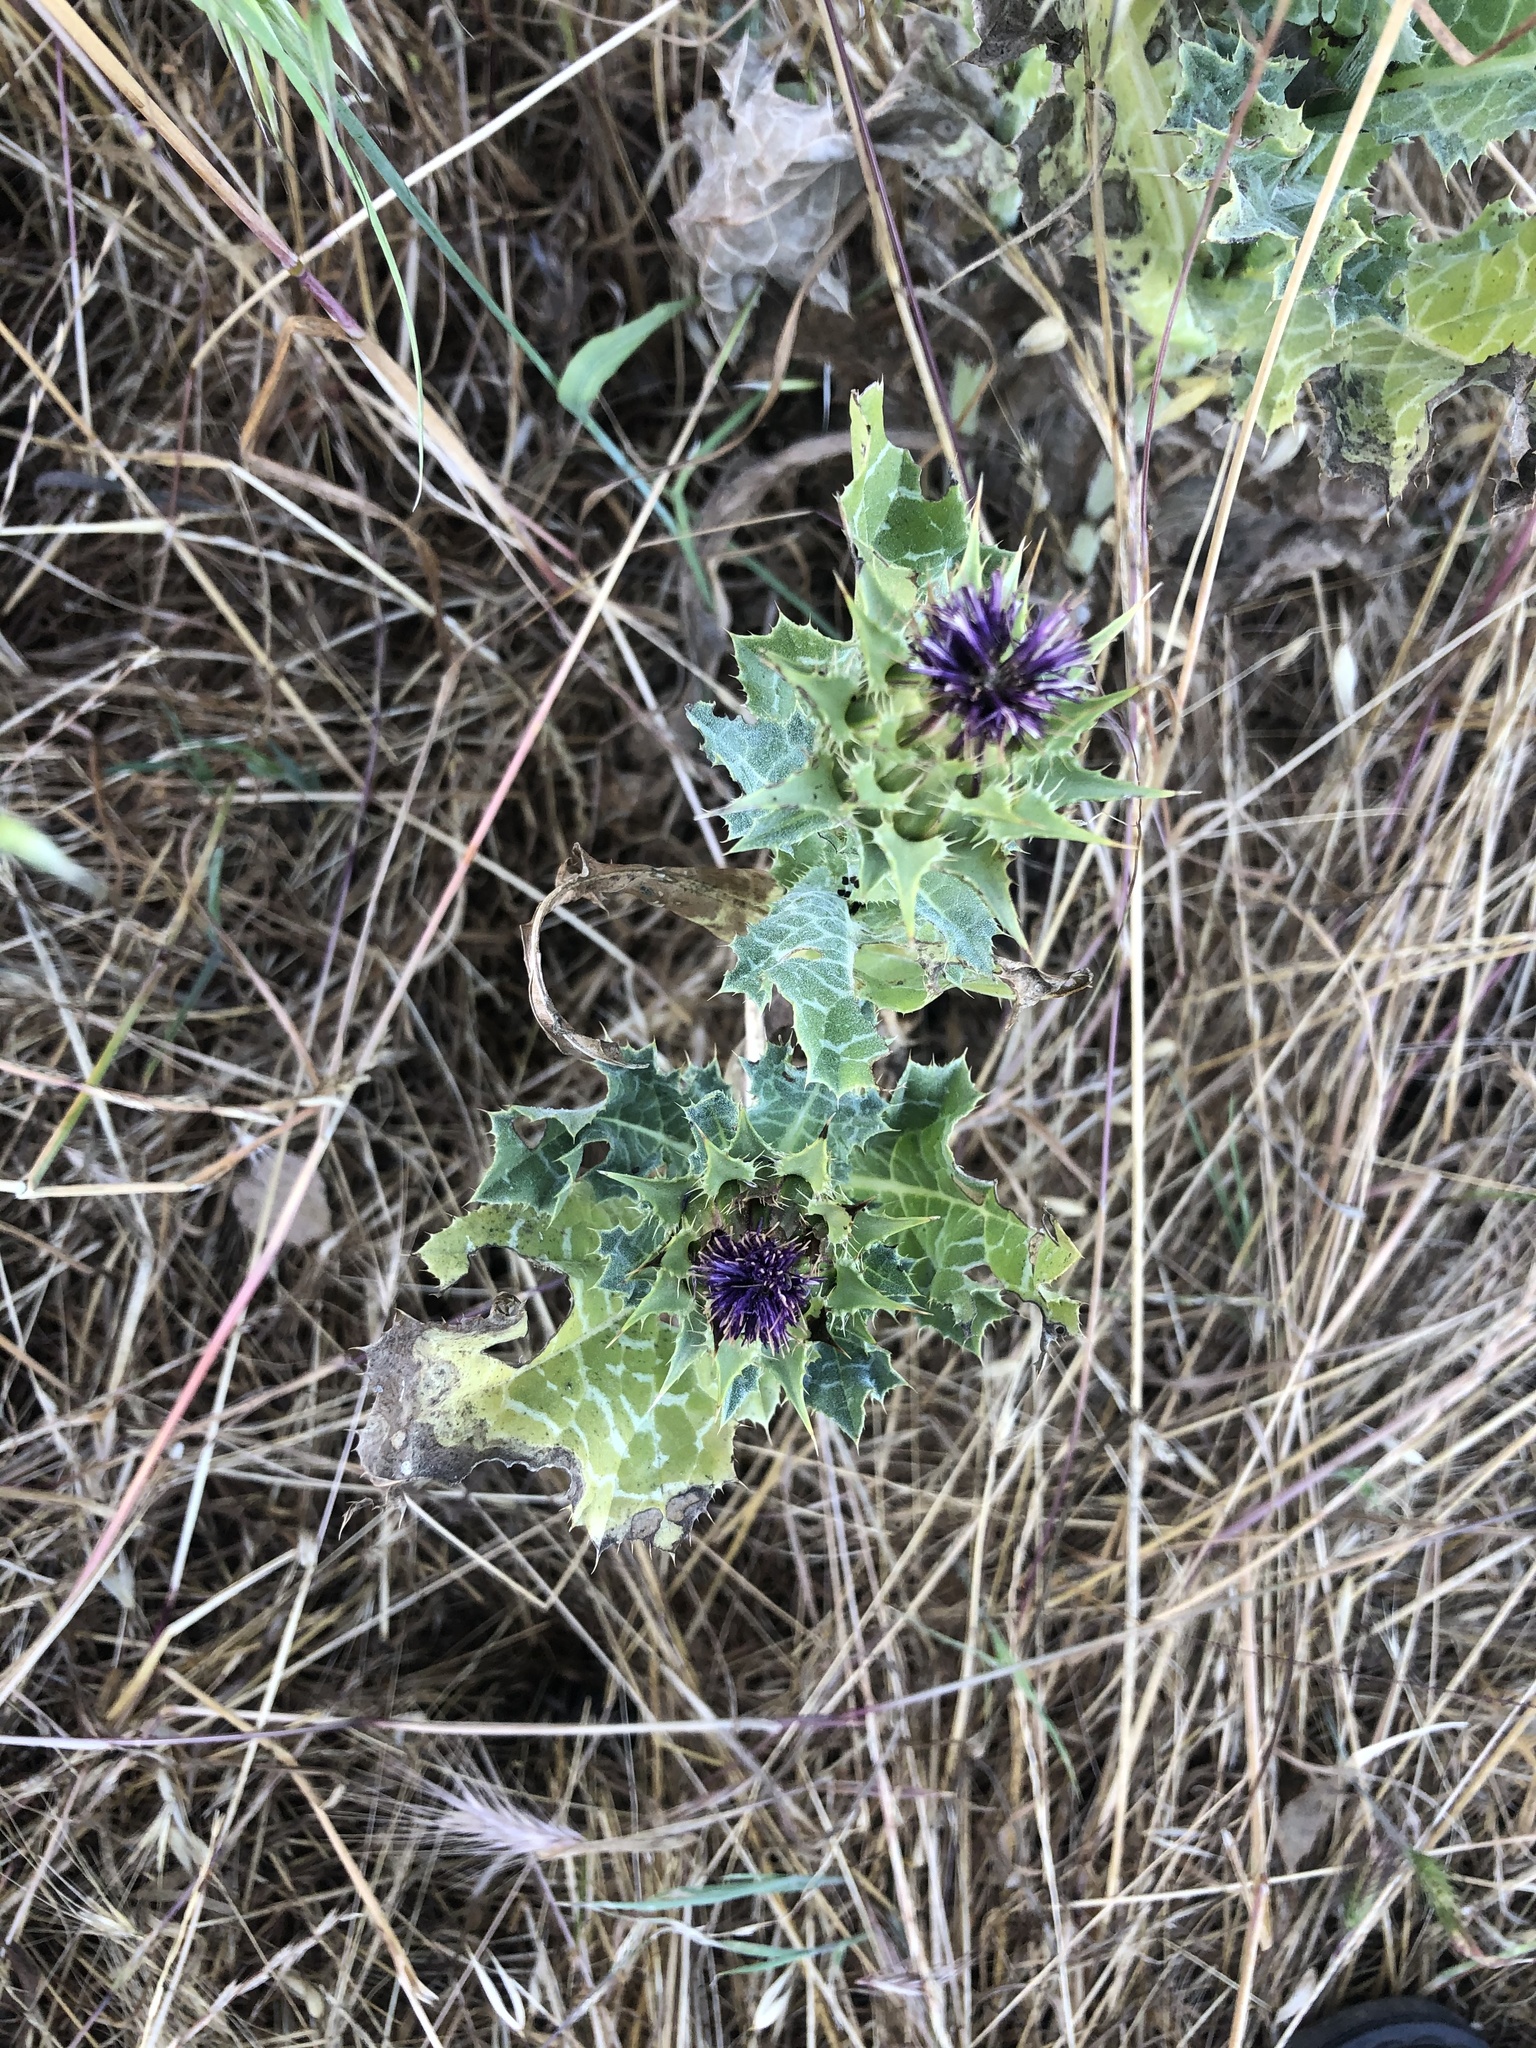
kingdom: Plantae
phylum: Tracheophyta
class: Magnoliopsida
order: Asterales
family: Asteraceae
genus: Silybum
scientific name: Silybum marianum
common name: Milk thistle
